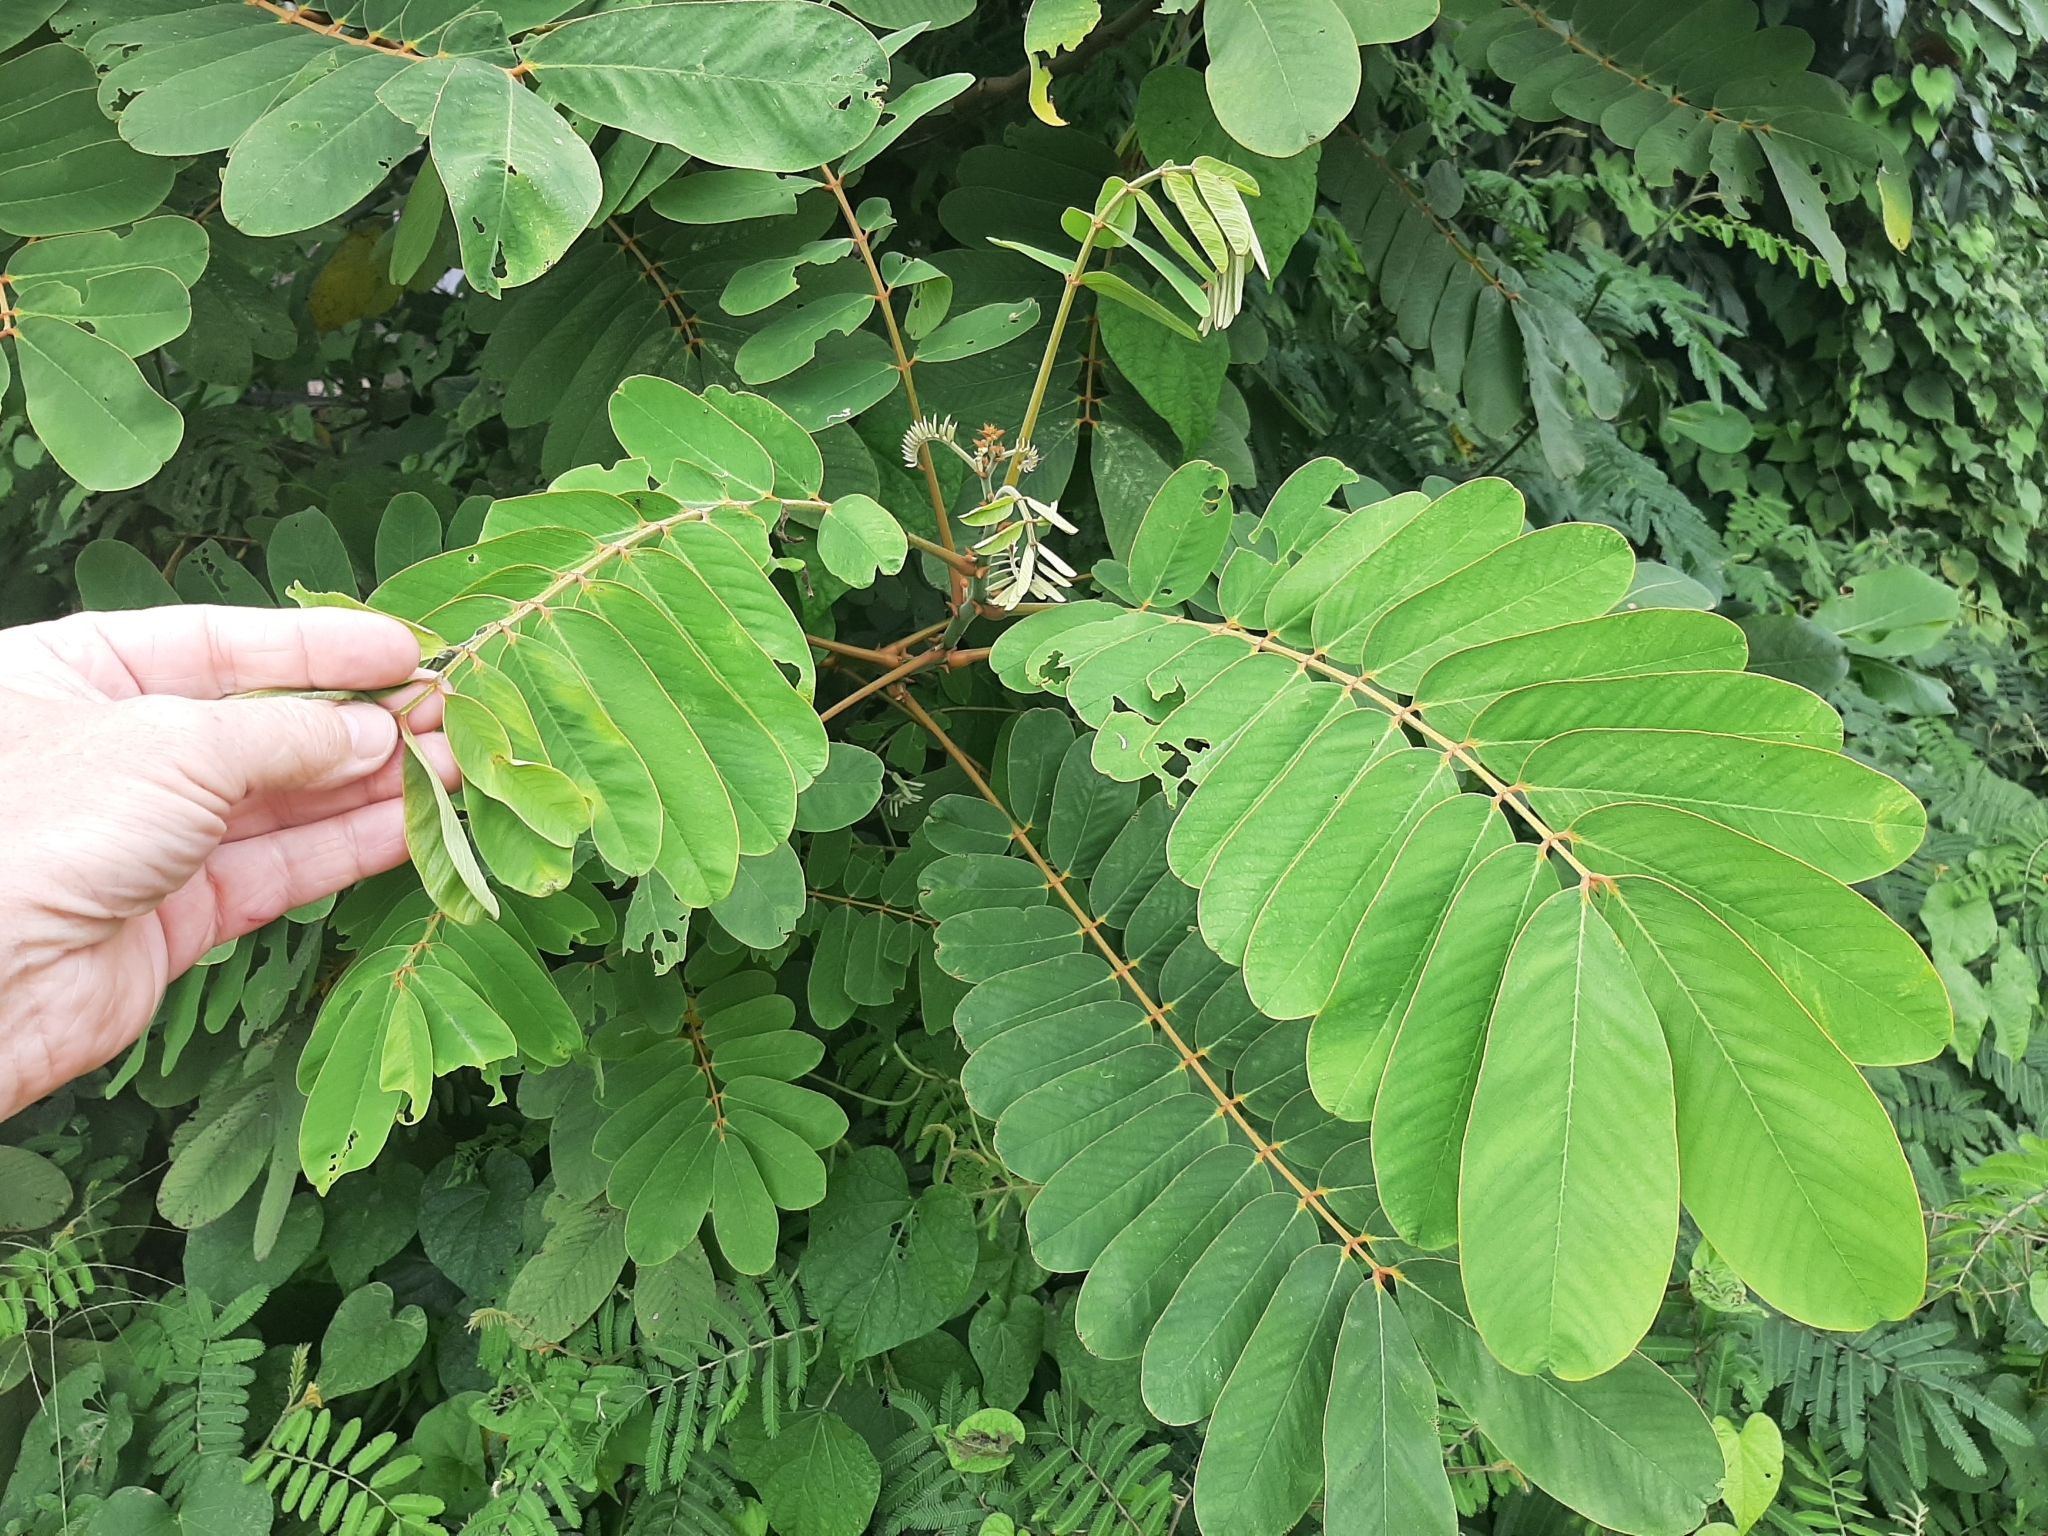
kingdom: Plantae
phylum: Tracheophyta
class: Magnoliopsida
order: Fabales
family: Fabaceae
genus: Senna
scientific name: Senna alata
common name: Emperor's candlesticks
